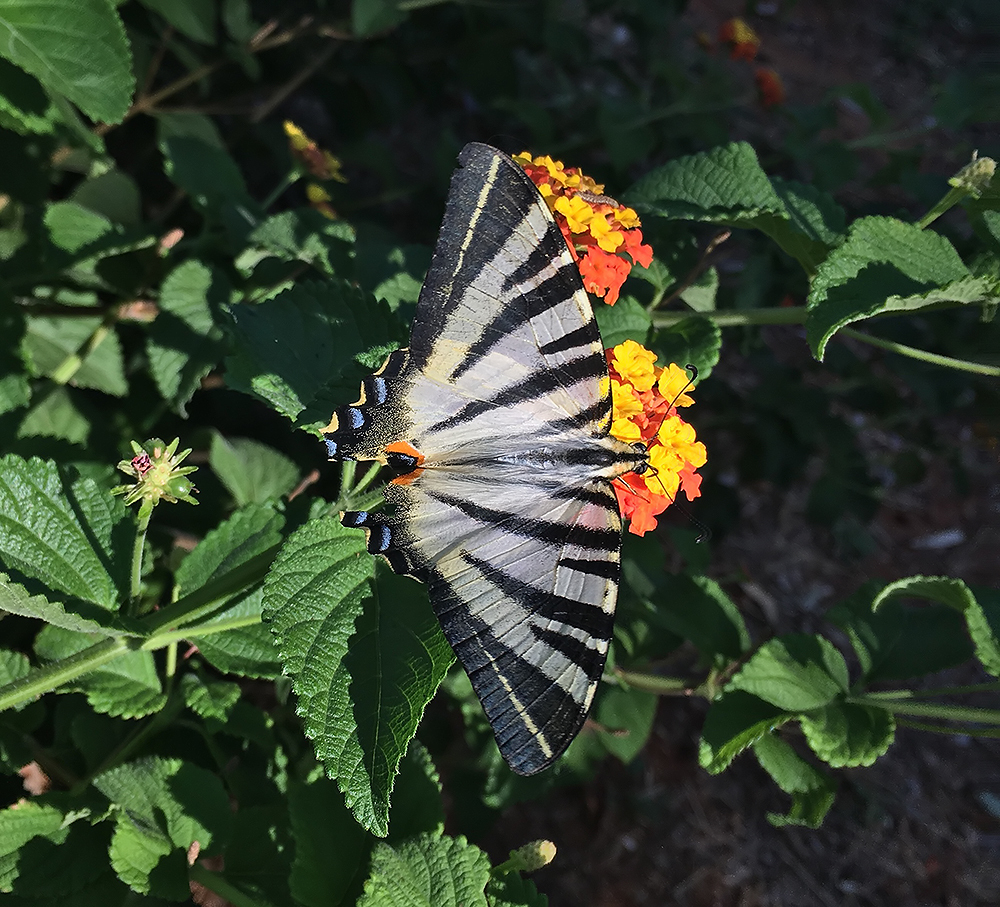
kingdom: Animalia
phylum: Arthropoda
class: Insecta
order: Lepidoptera
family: Papilionidae
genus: Iphiclides
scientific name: Iphiclides podalirius
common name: Scarce swallowtail
